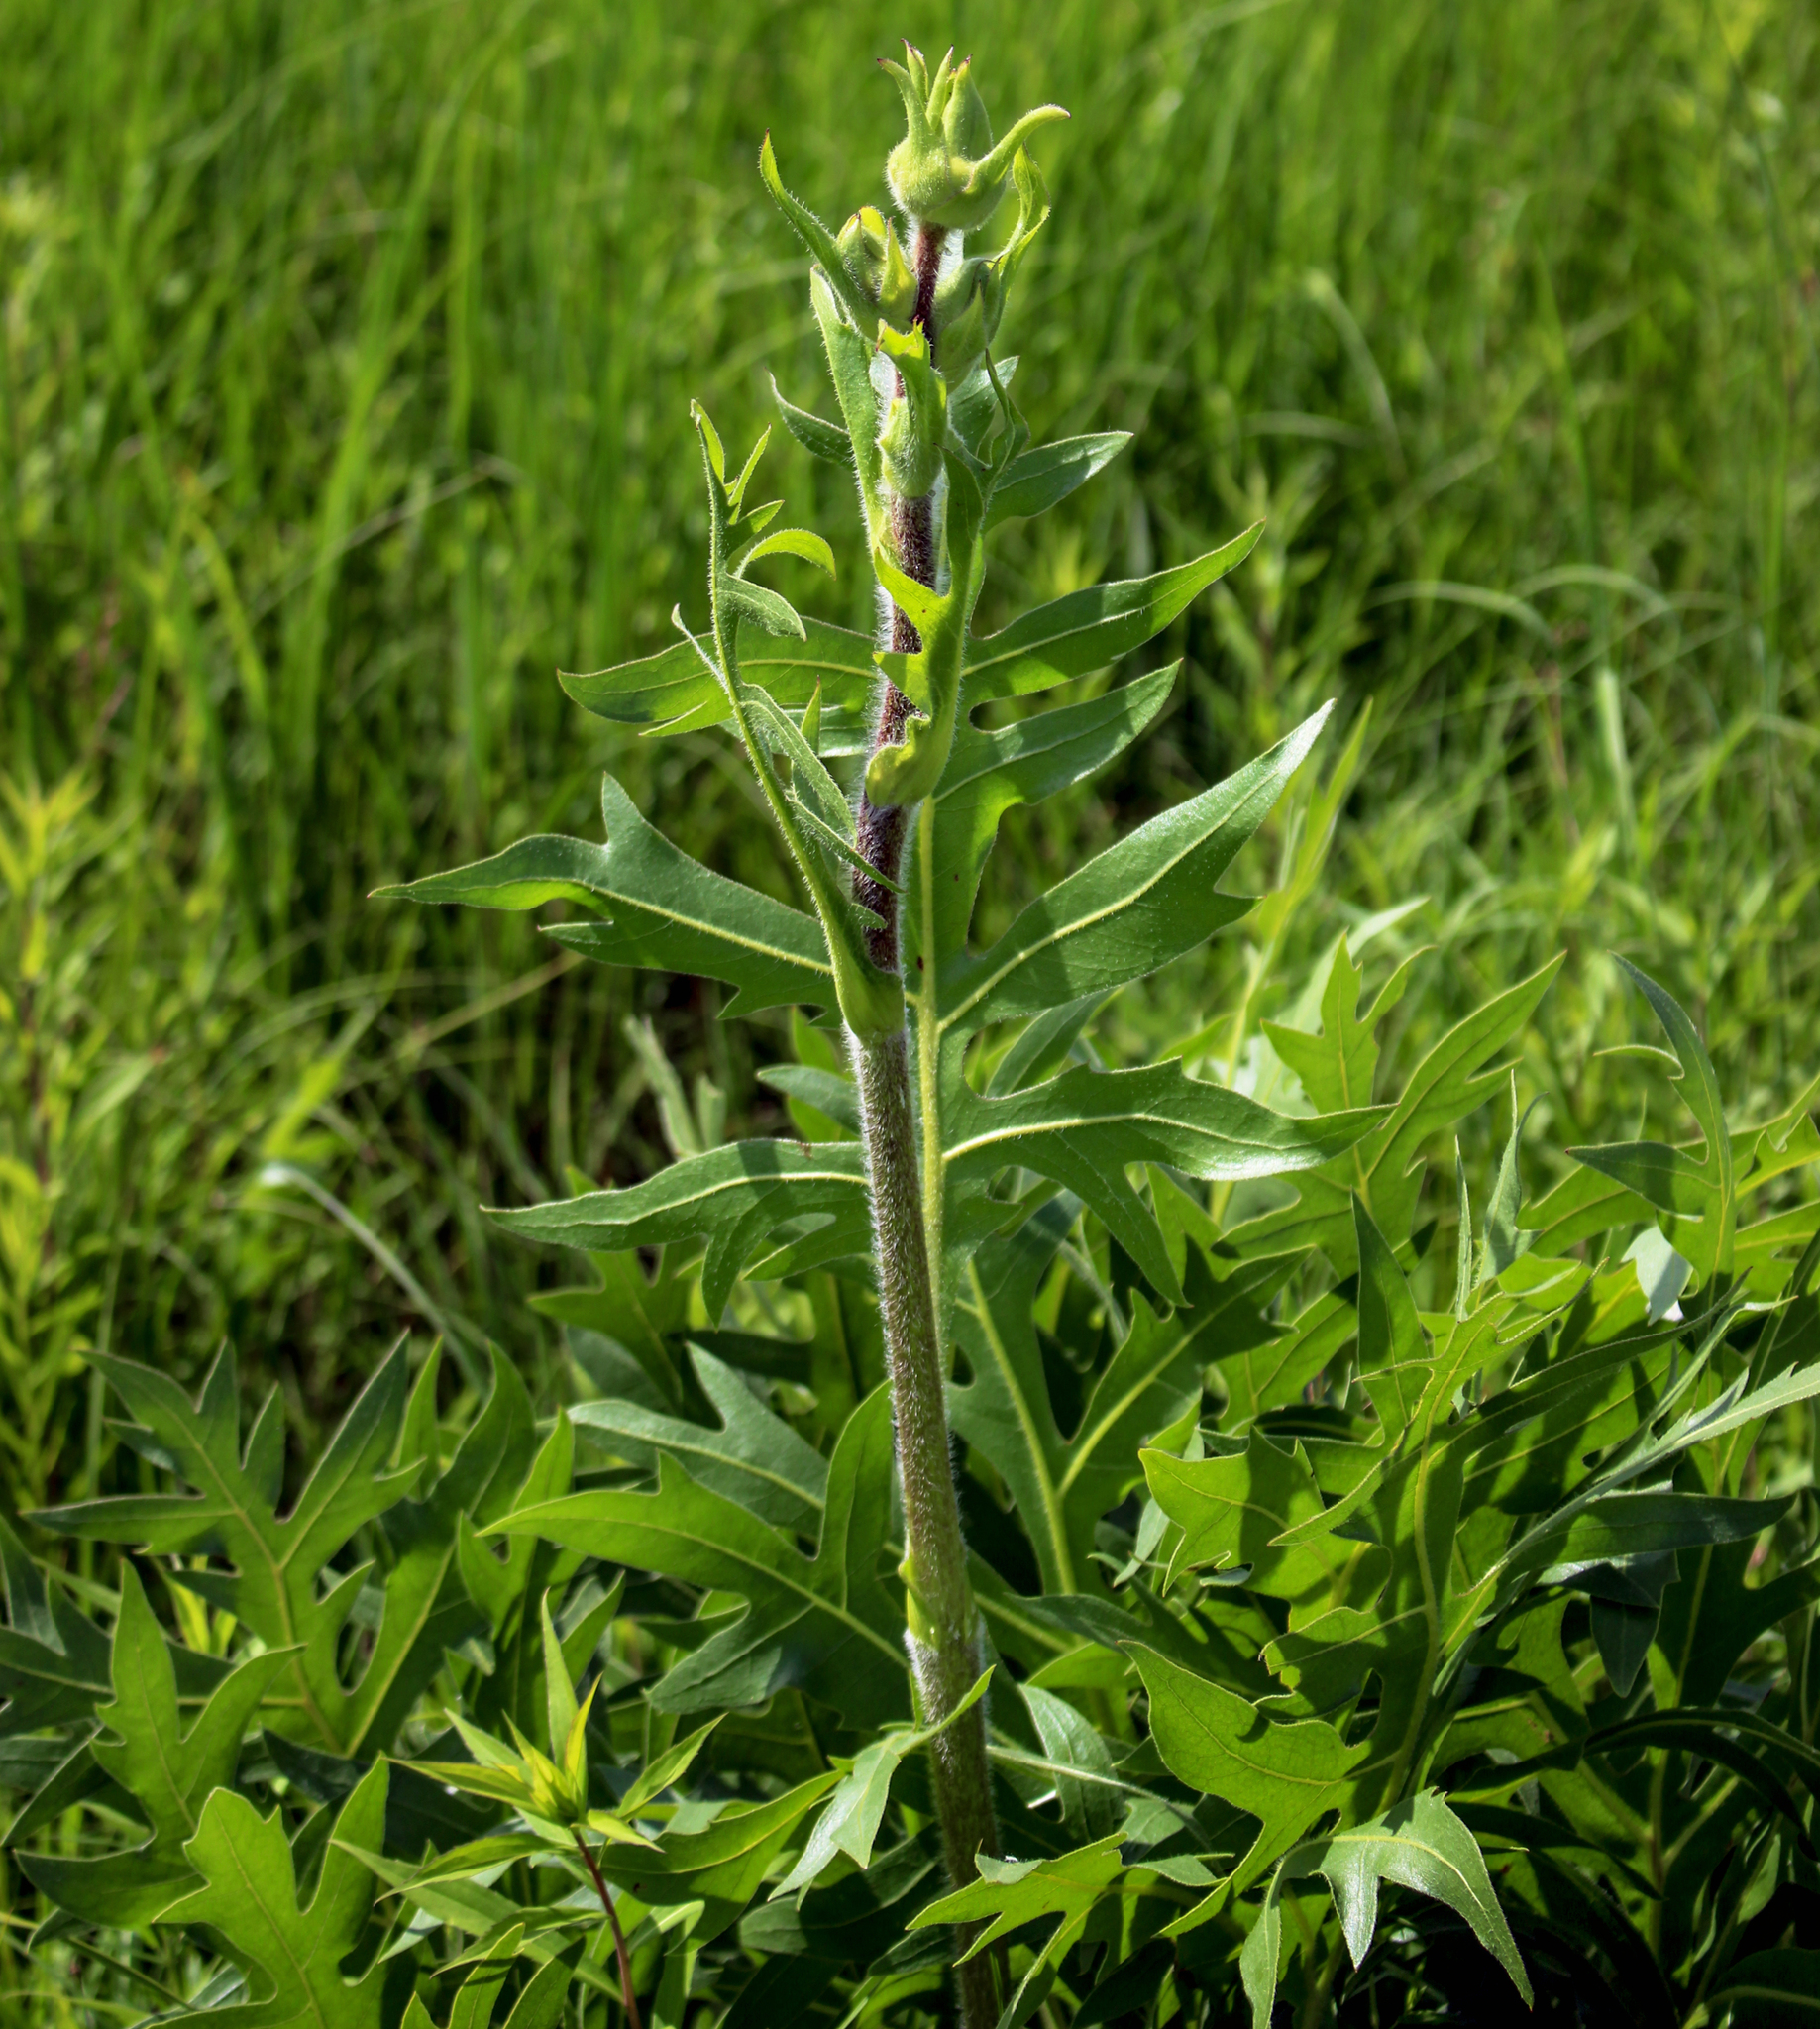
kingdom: Plantae
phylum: Tracheophyta
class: Magnoliopsida
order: Asterales
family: Asteraceae
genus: Silphium
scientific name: Silphium laciniatum
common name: Polarplant
